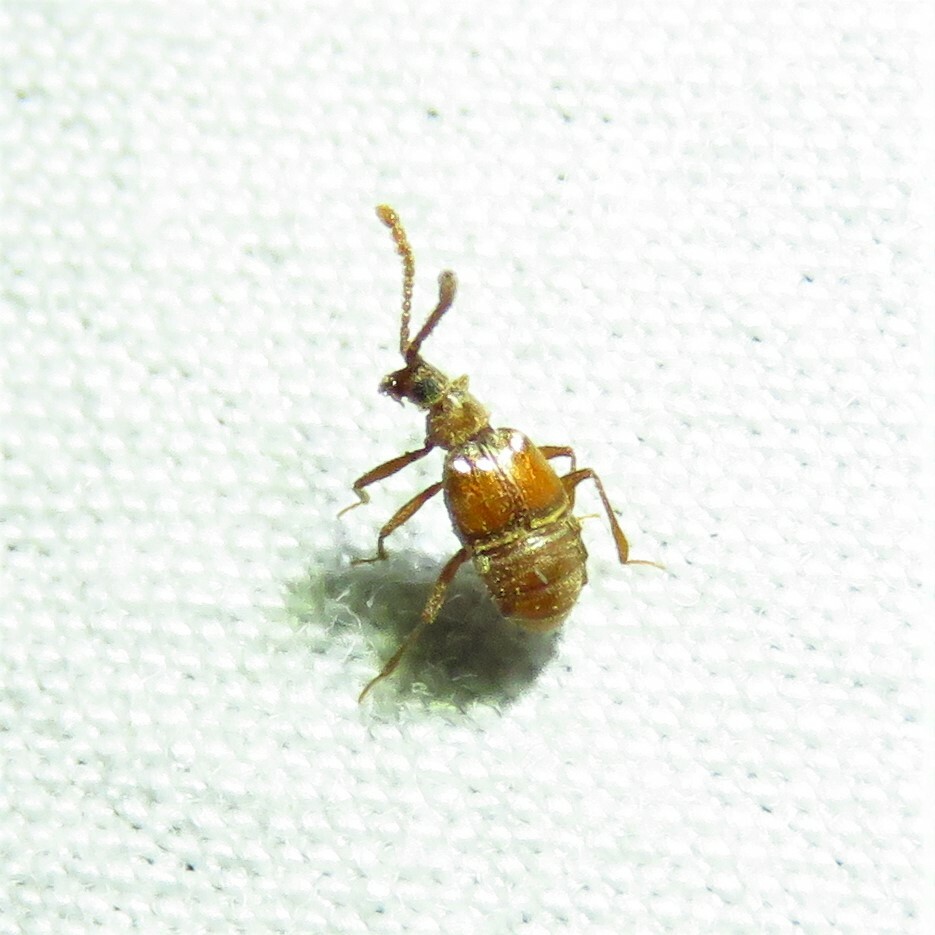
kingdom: Animalia
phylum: Arthropoda
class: Insecta
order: Coleoptera
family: Staphylinidae
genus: Atinus
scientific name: Atinus monilicornis
